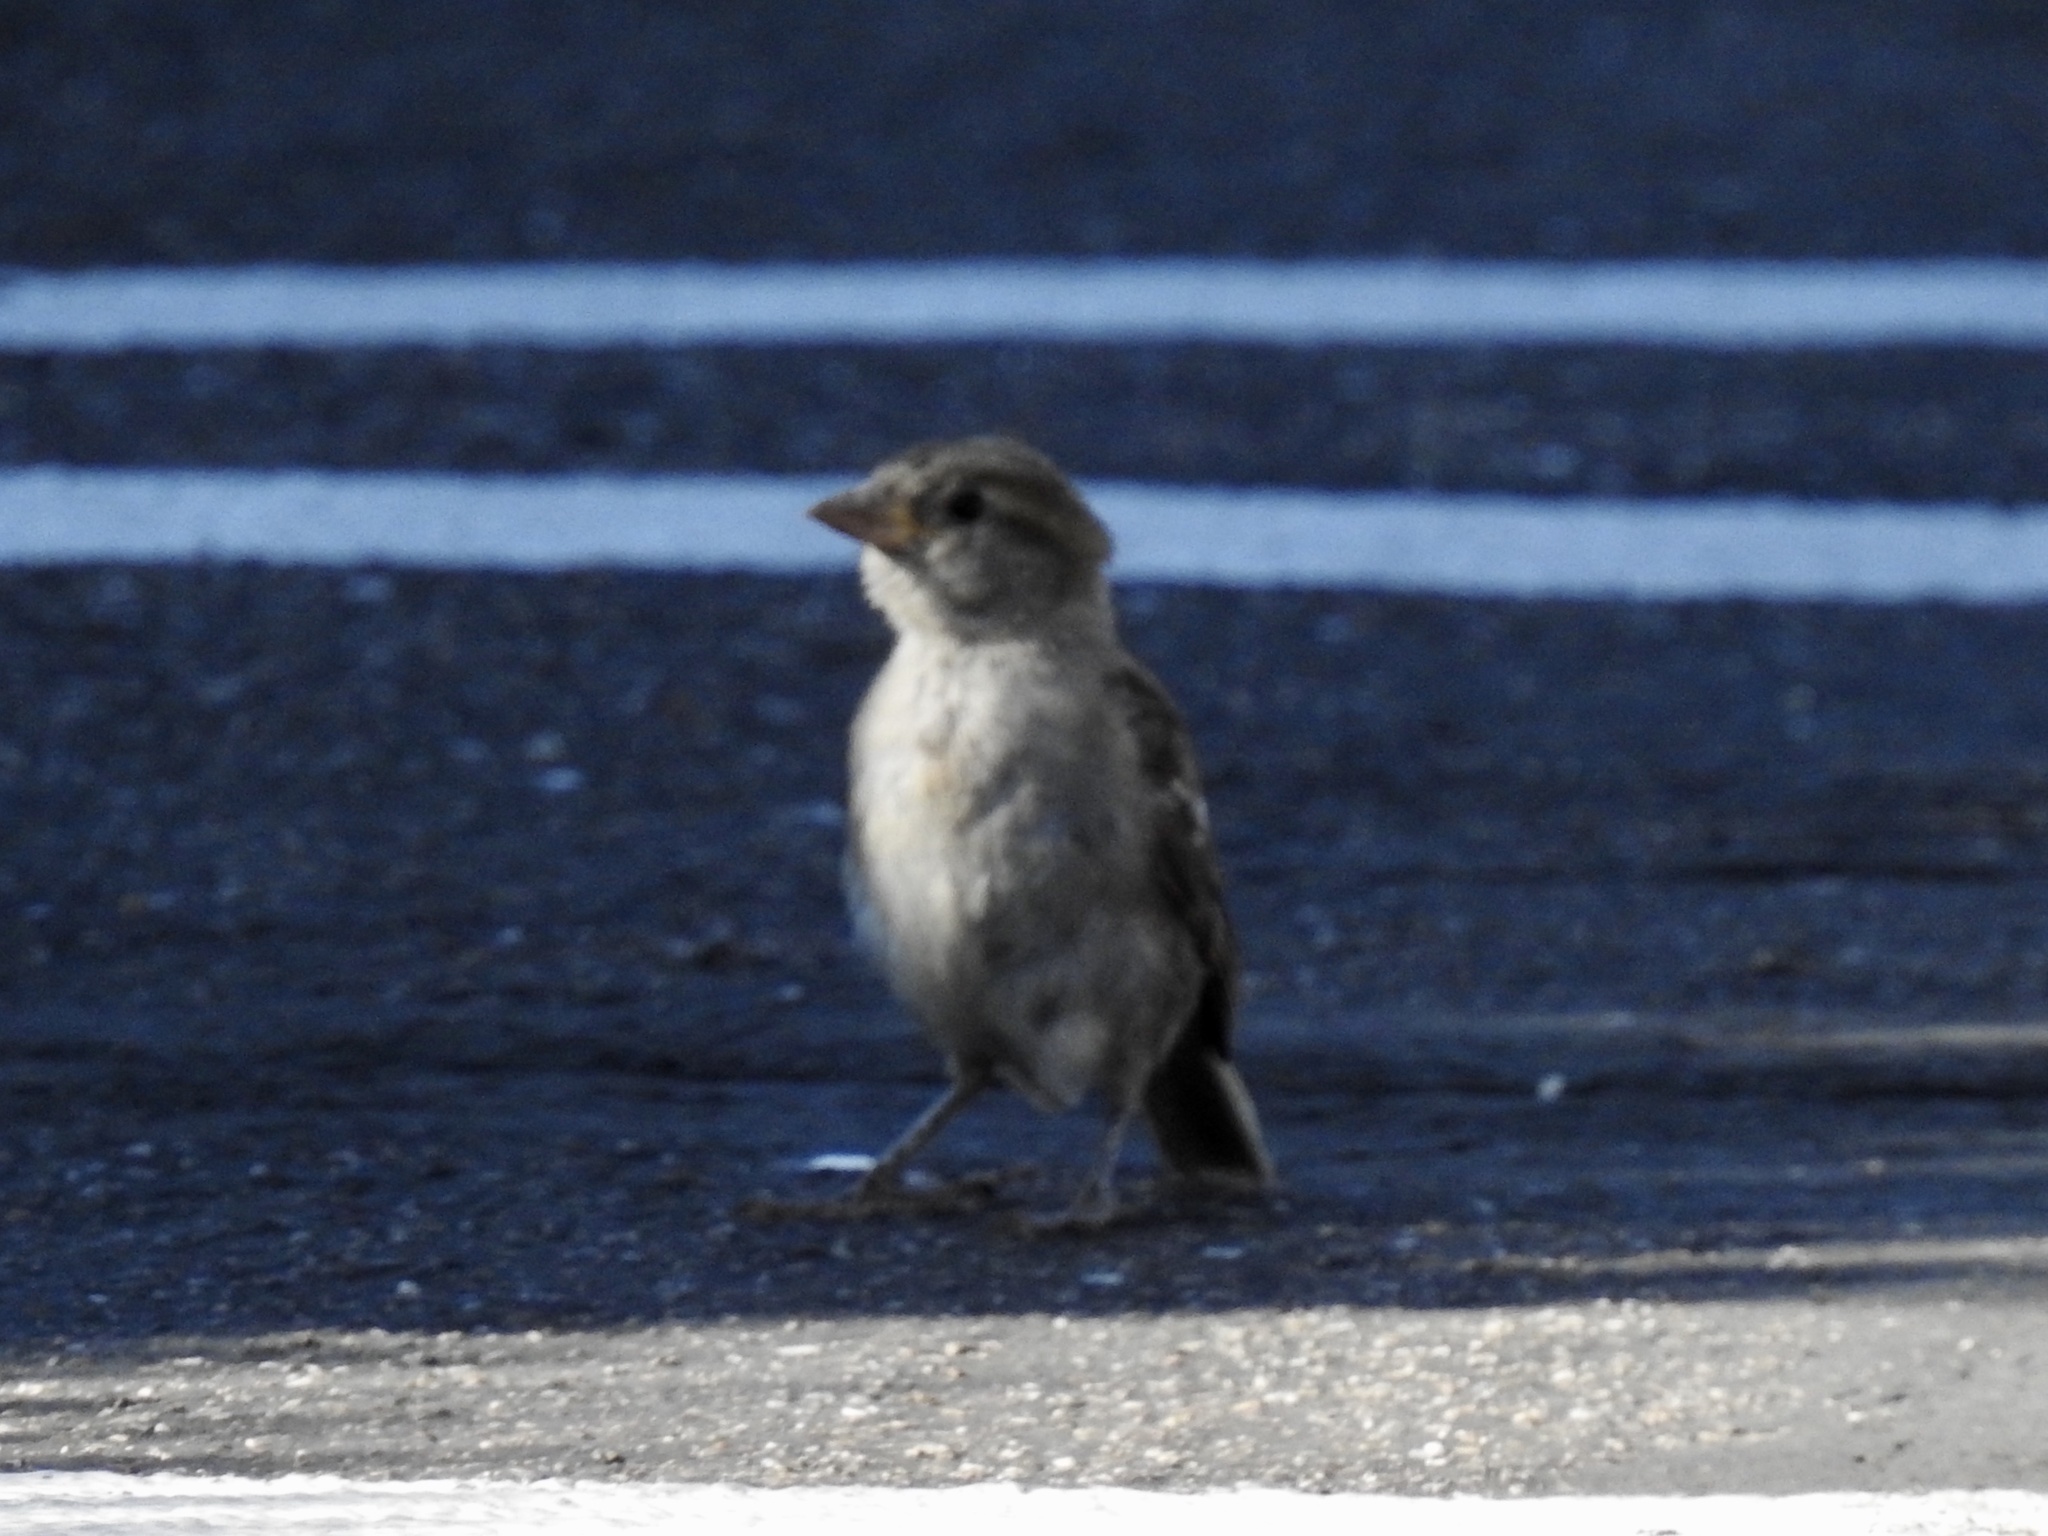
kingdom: Animalia
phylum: Chordata
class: Aves
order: Passeriformes
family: Passeridae
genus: Passer
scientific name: Passer domesticus
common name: House sparrow
